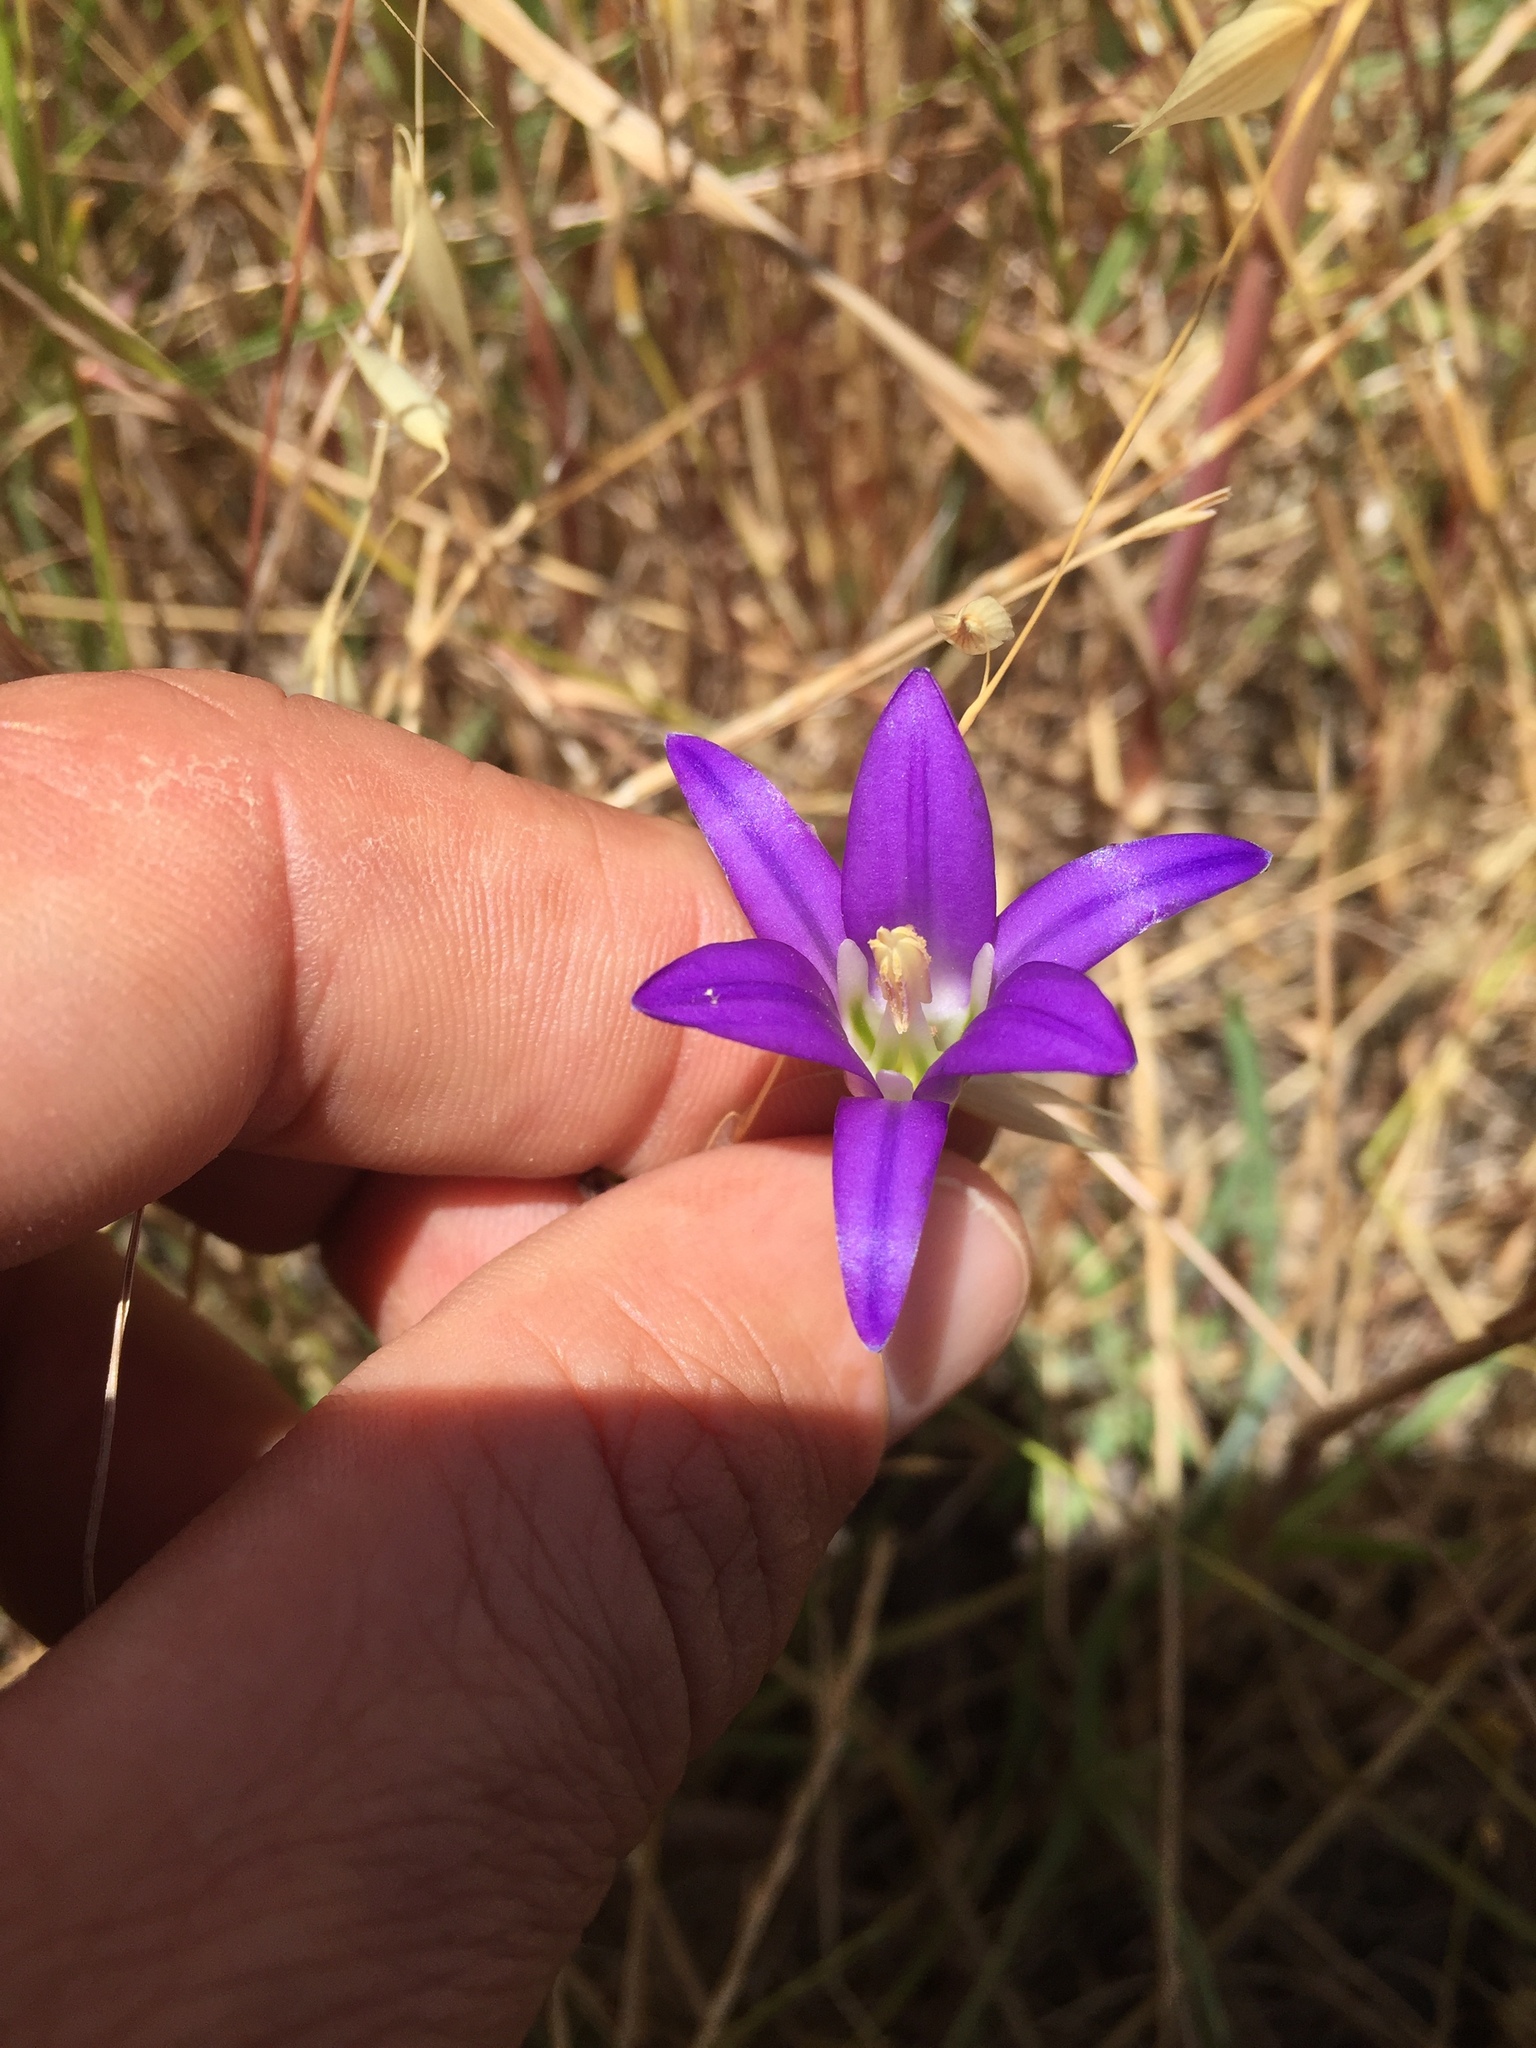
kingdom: Plantae
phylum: Tracheophyta
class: Liliopsida
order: Asparagales
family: Asparagaceae
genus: Brodiaea
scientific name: Brodiaea elegans
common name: Elegant cluster-lily
